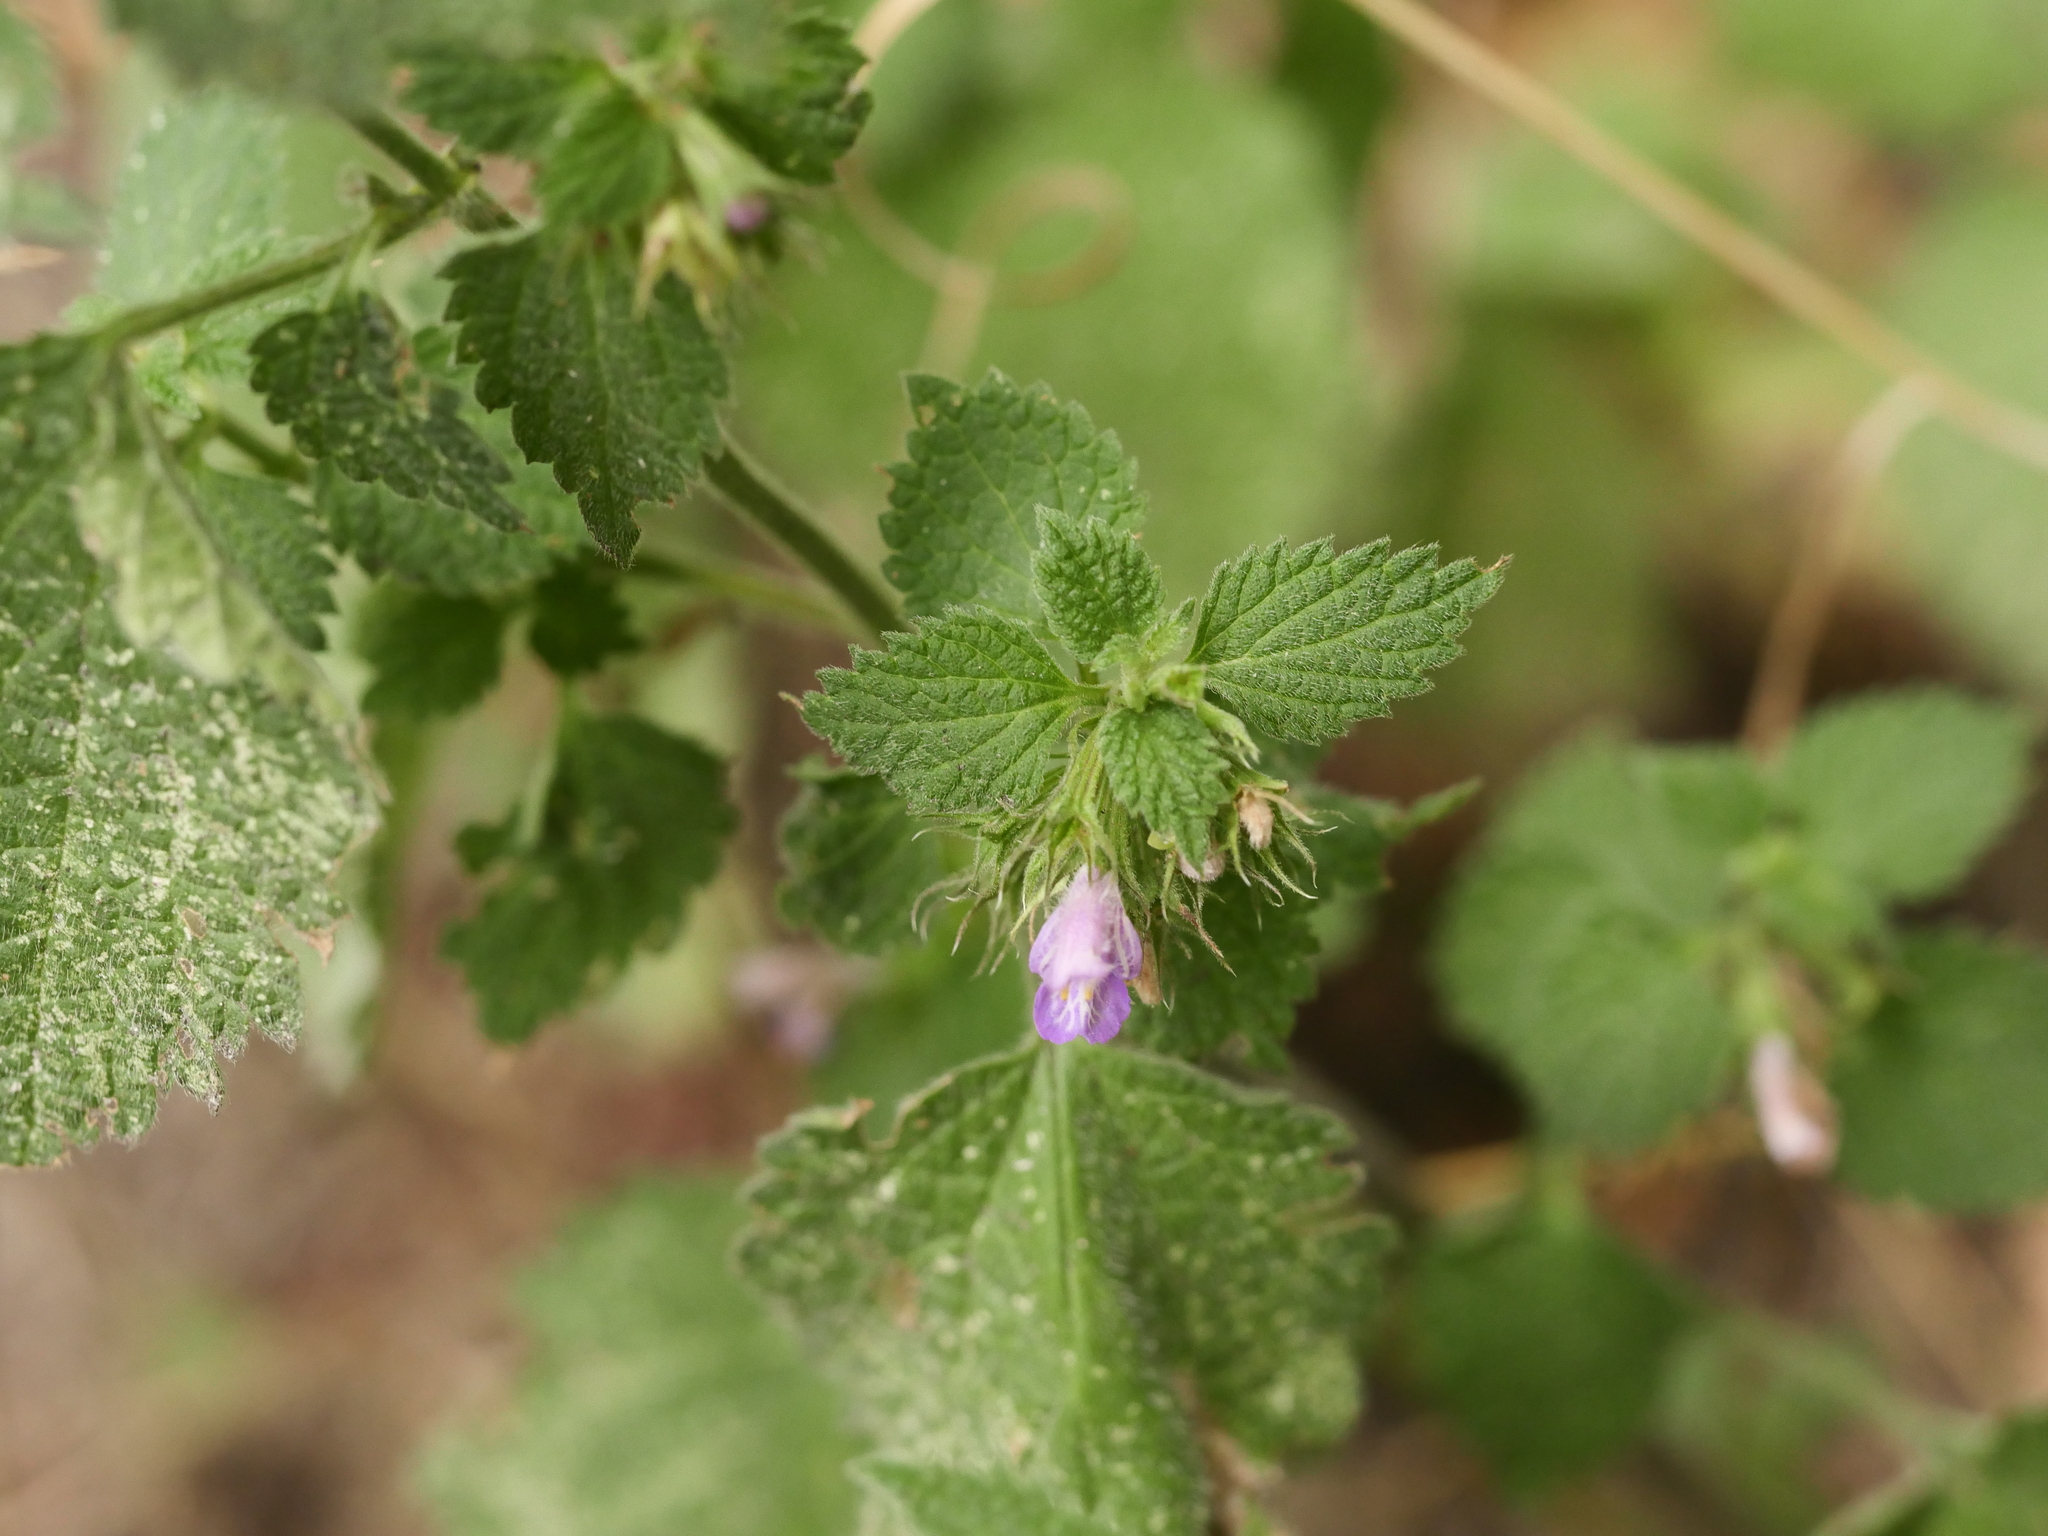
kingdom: Plantae
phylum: Tracheophyta
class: Magnoliopsida
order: Lamiales
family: Lamiaceae
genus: Ballota
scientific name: Ballota nigra
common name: Black horehound
